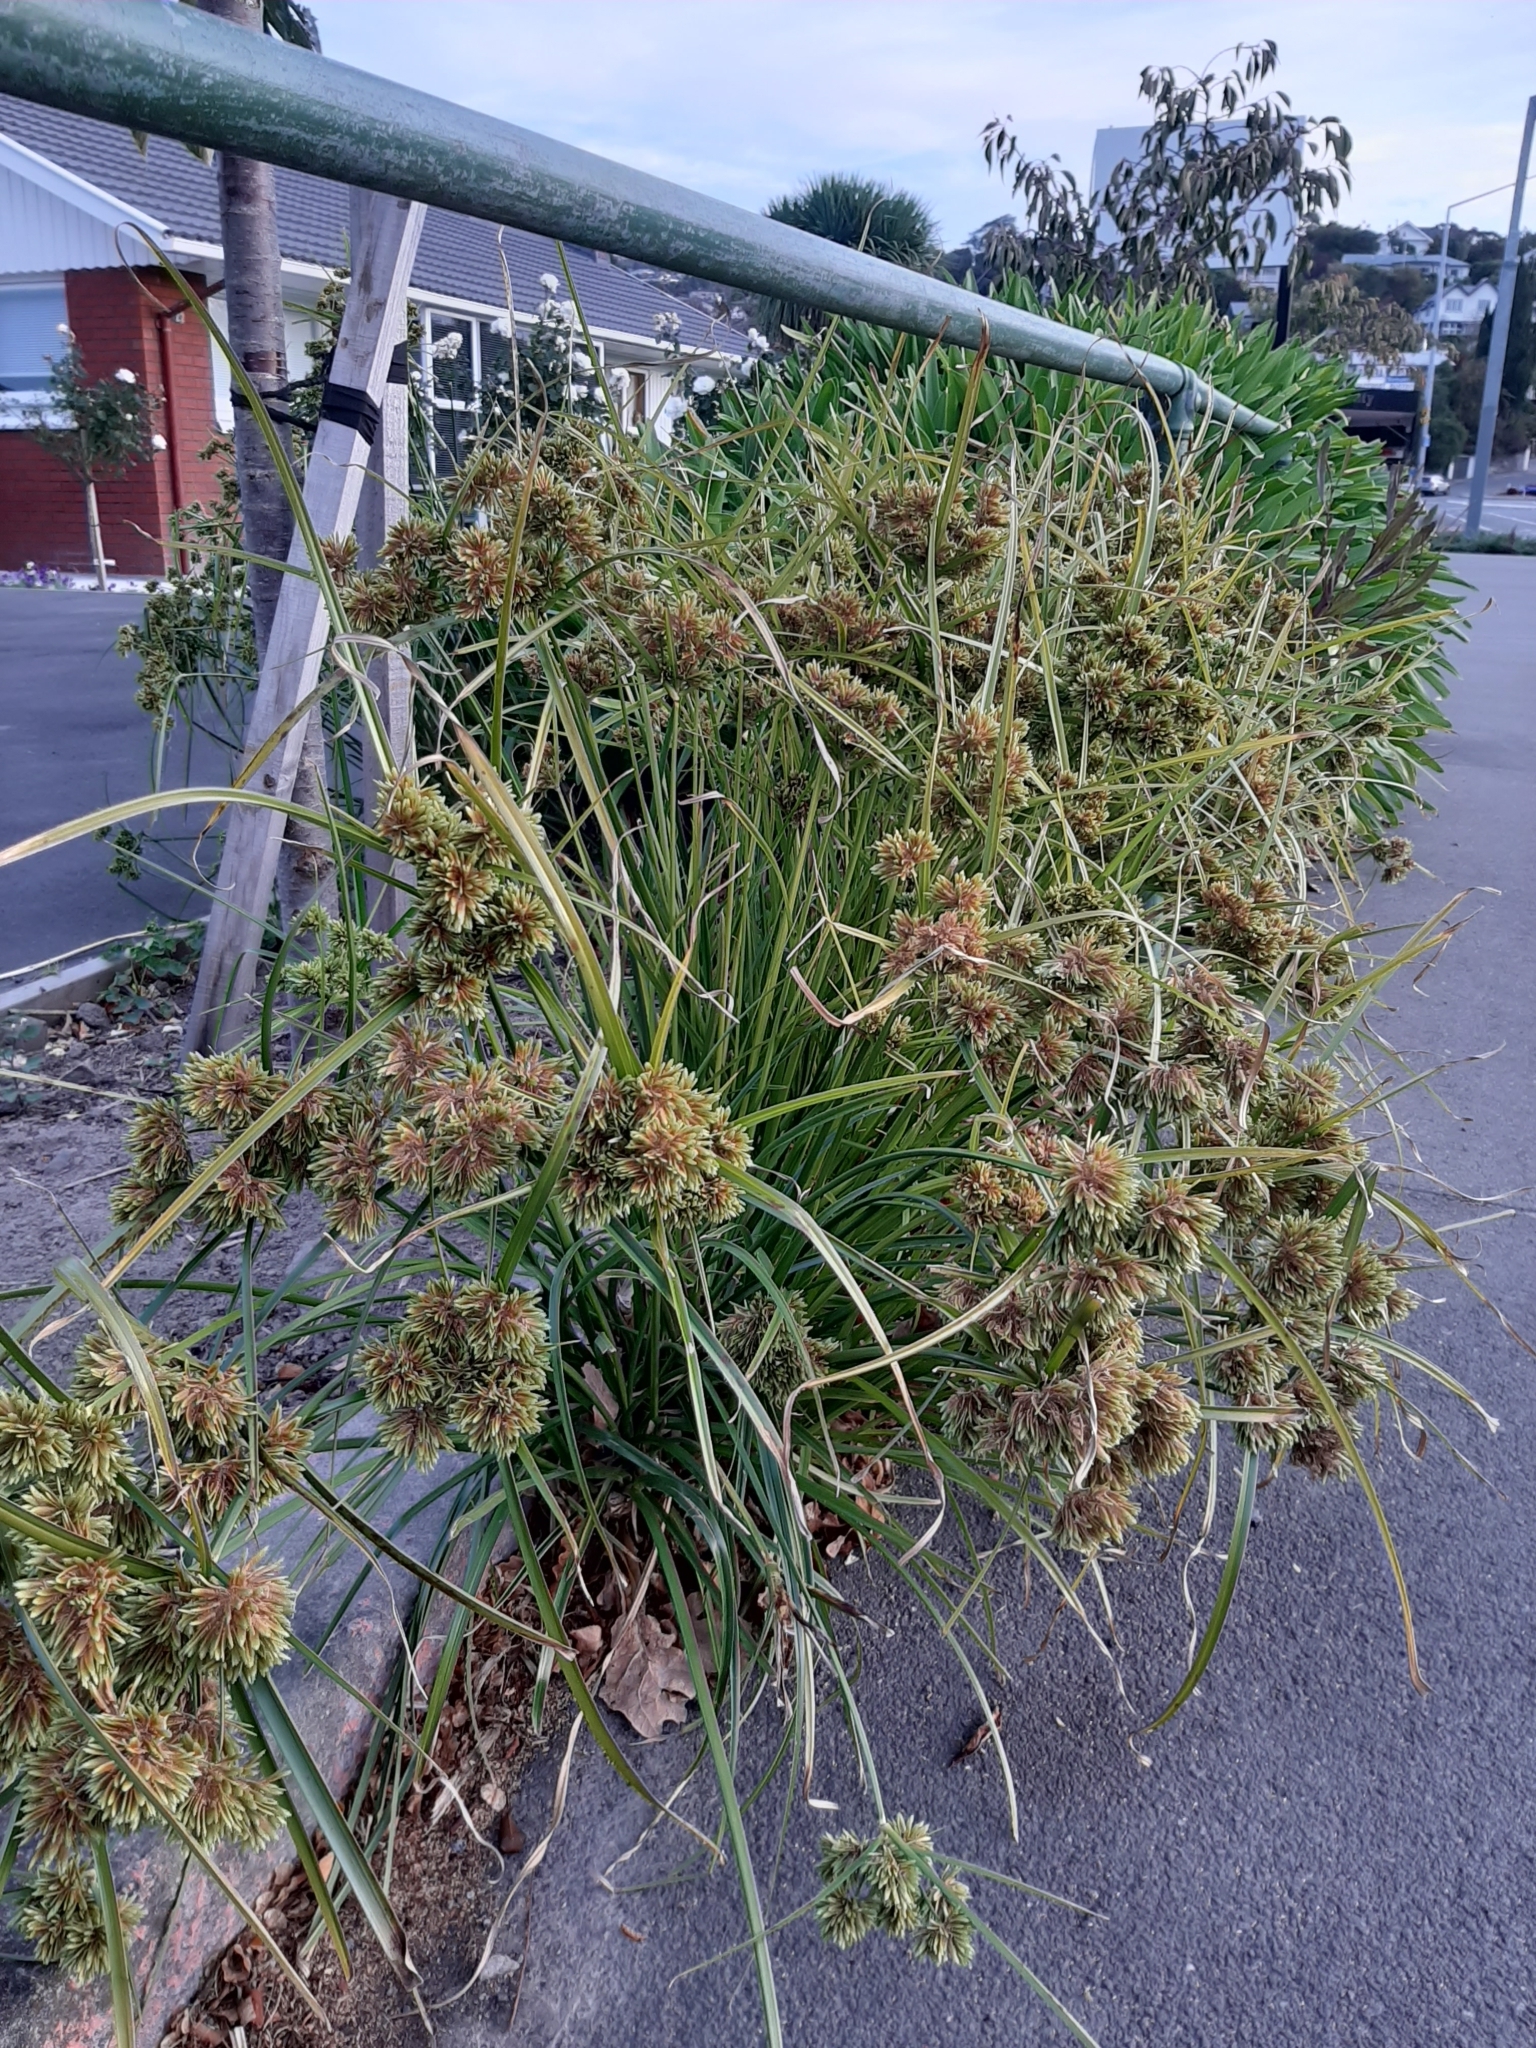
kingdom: Plantae
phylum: Tracheophyta
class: Liliopsida
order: Poales
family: Cyperaceae
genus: Cyperus
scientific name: Cyperus eragrostis
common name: Tall flatsedge
